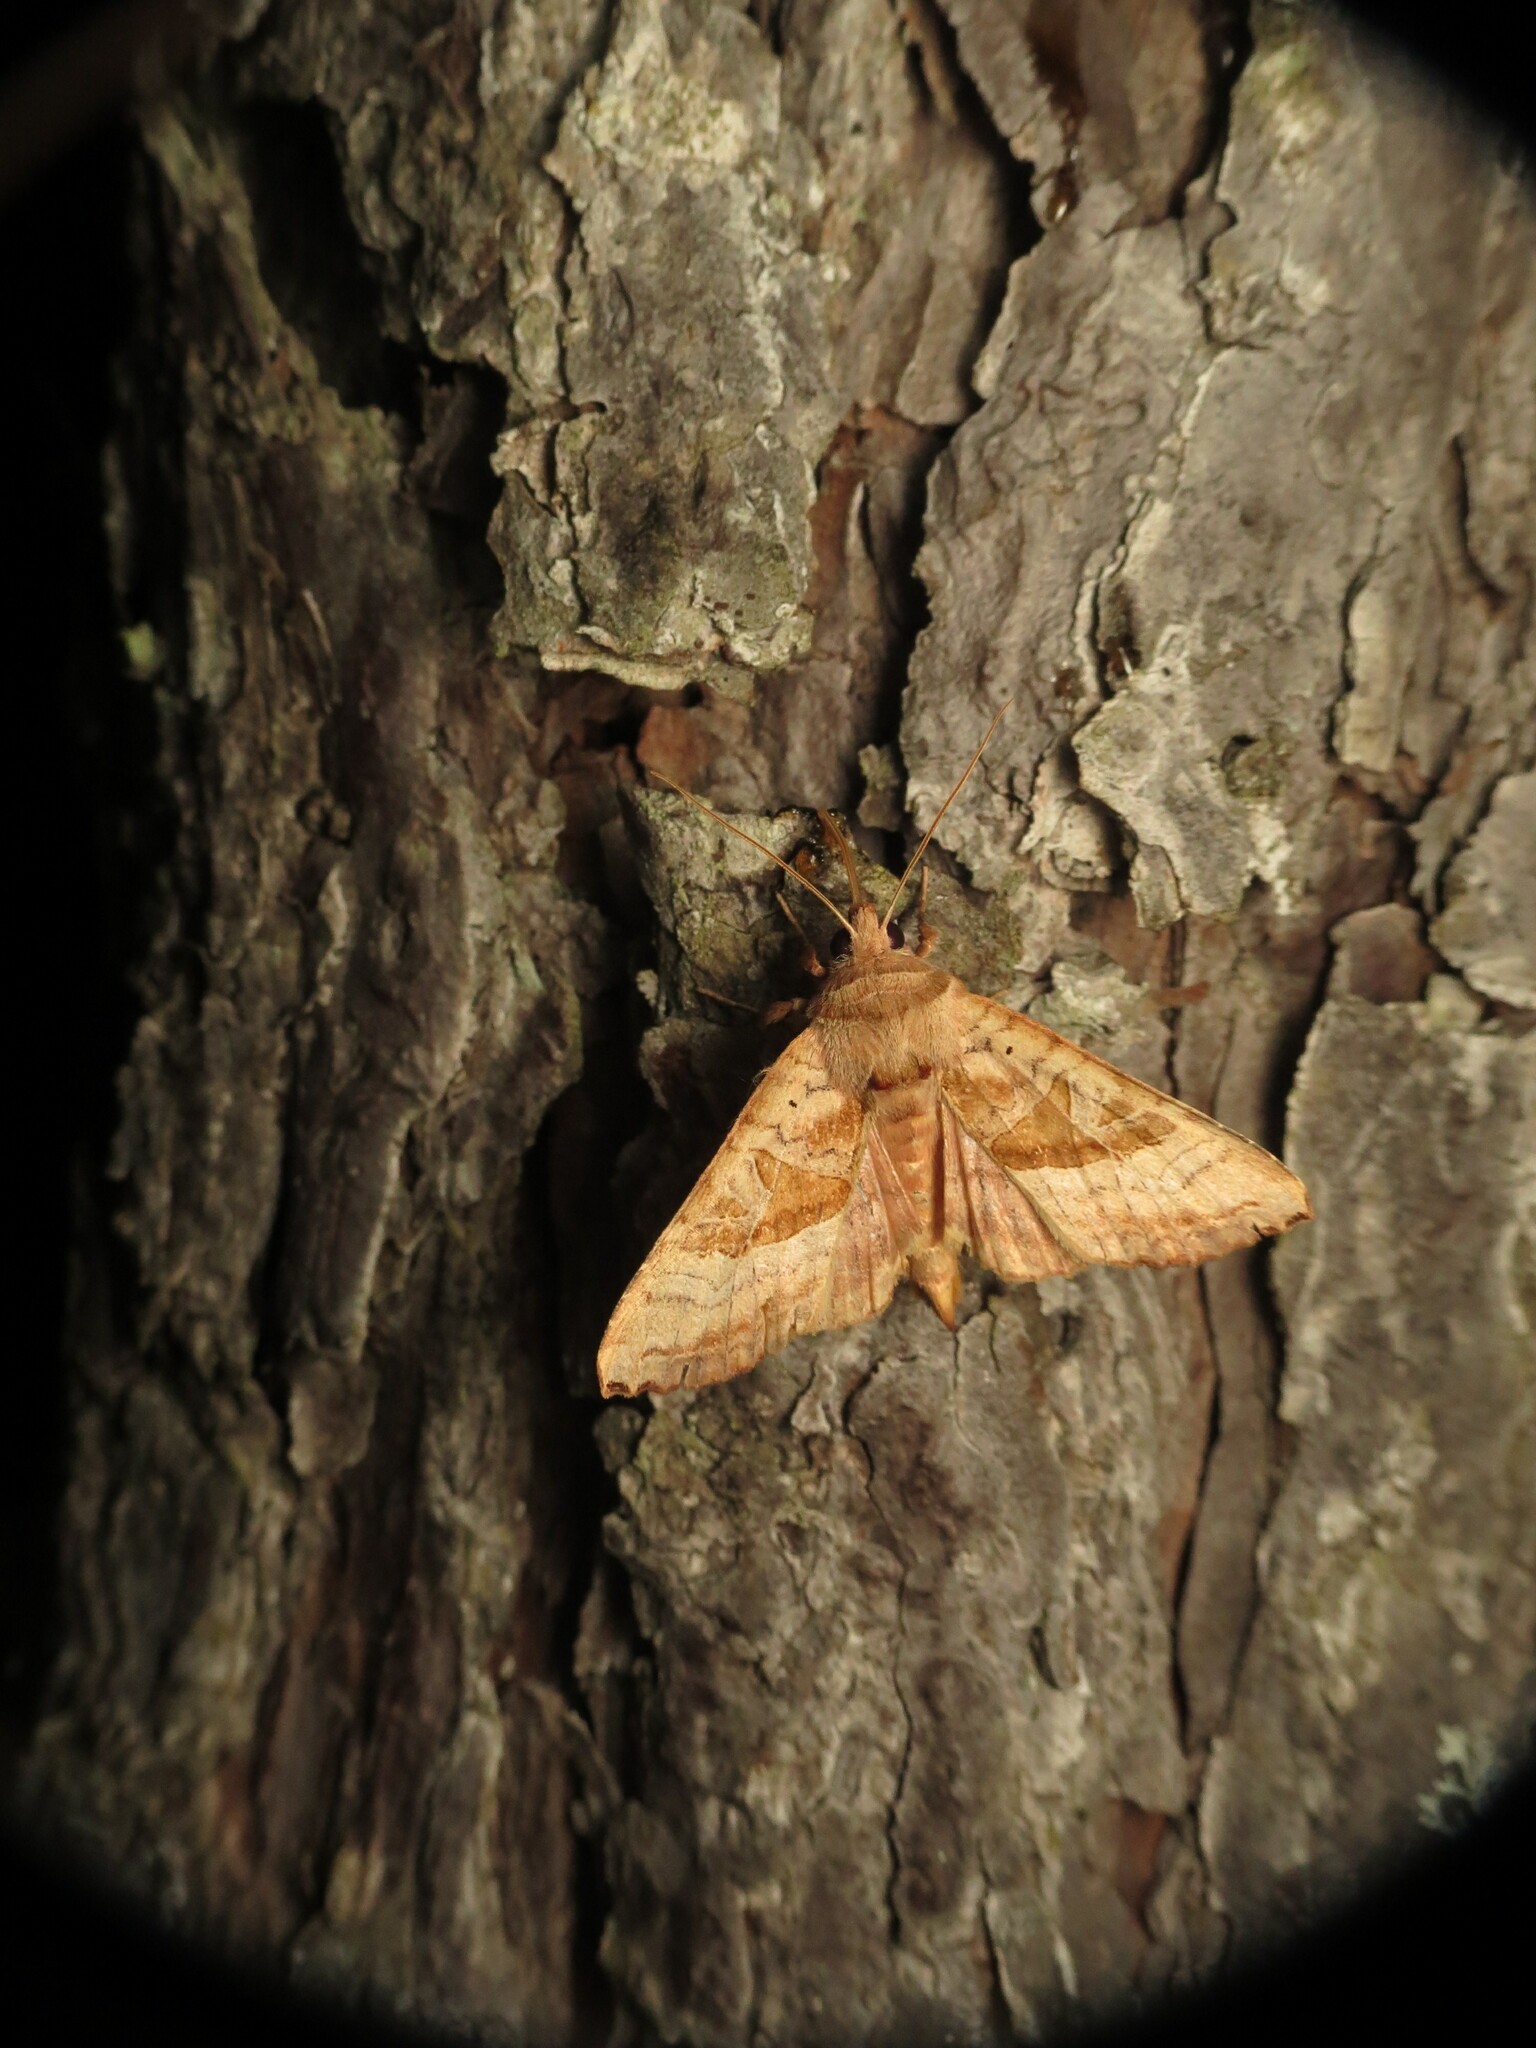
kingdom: Animalia
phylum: Arthropoda
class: Insecta
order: Lepidoptera
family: Noctuidae
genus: Phlogophora
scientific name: Phlogophora periculosa
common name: Brown angle shades
